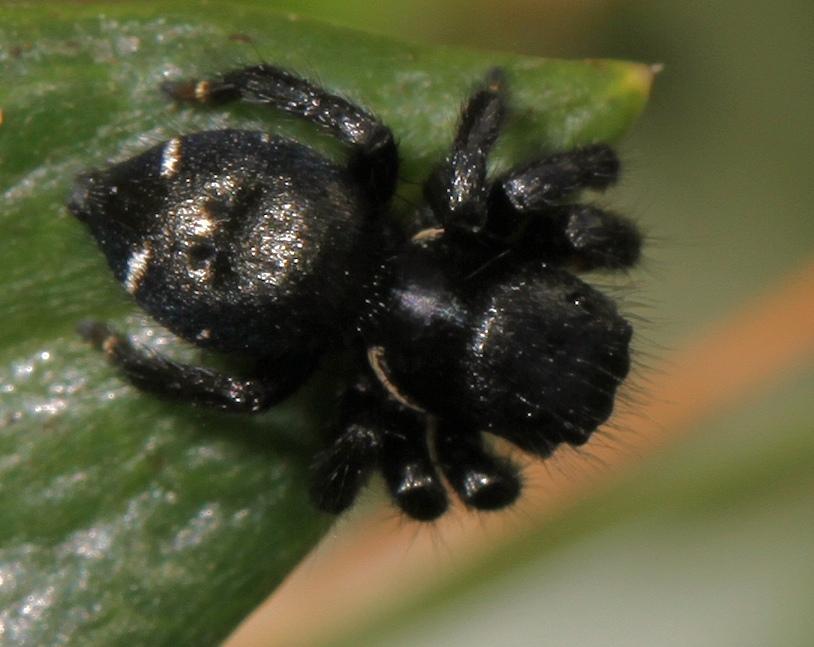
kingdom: Animalia
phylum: Arthropoda
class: Arachnida
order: Araneae
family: Salticidae
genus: Baryphas
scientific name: Baryphas ahenus
